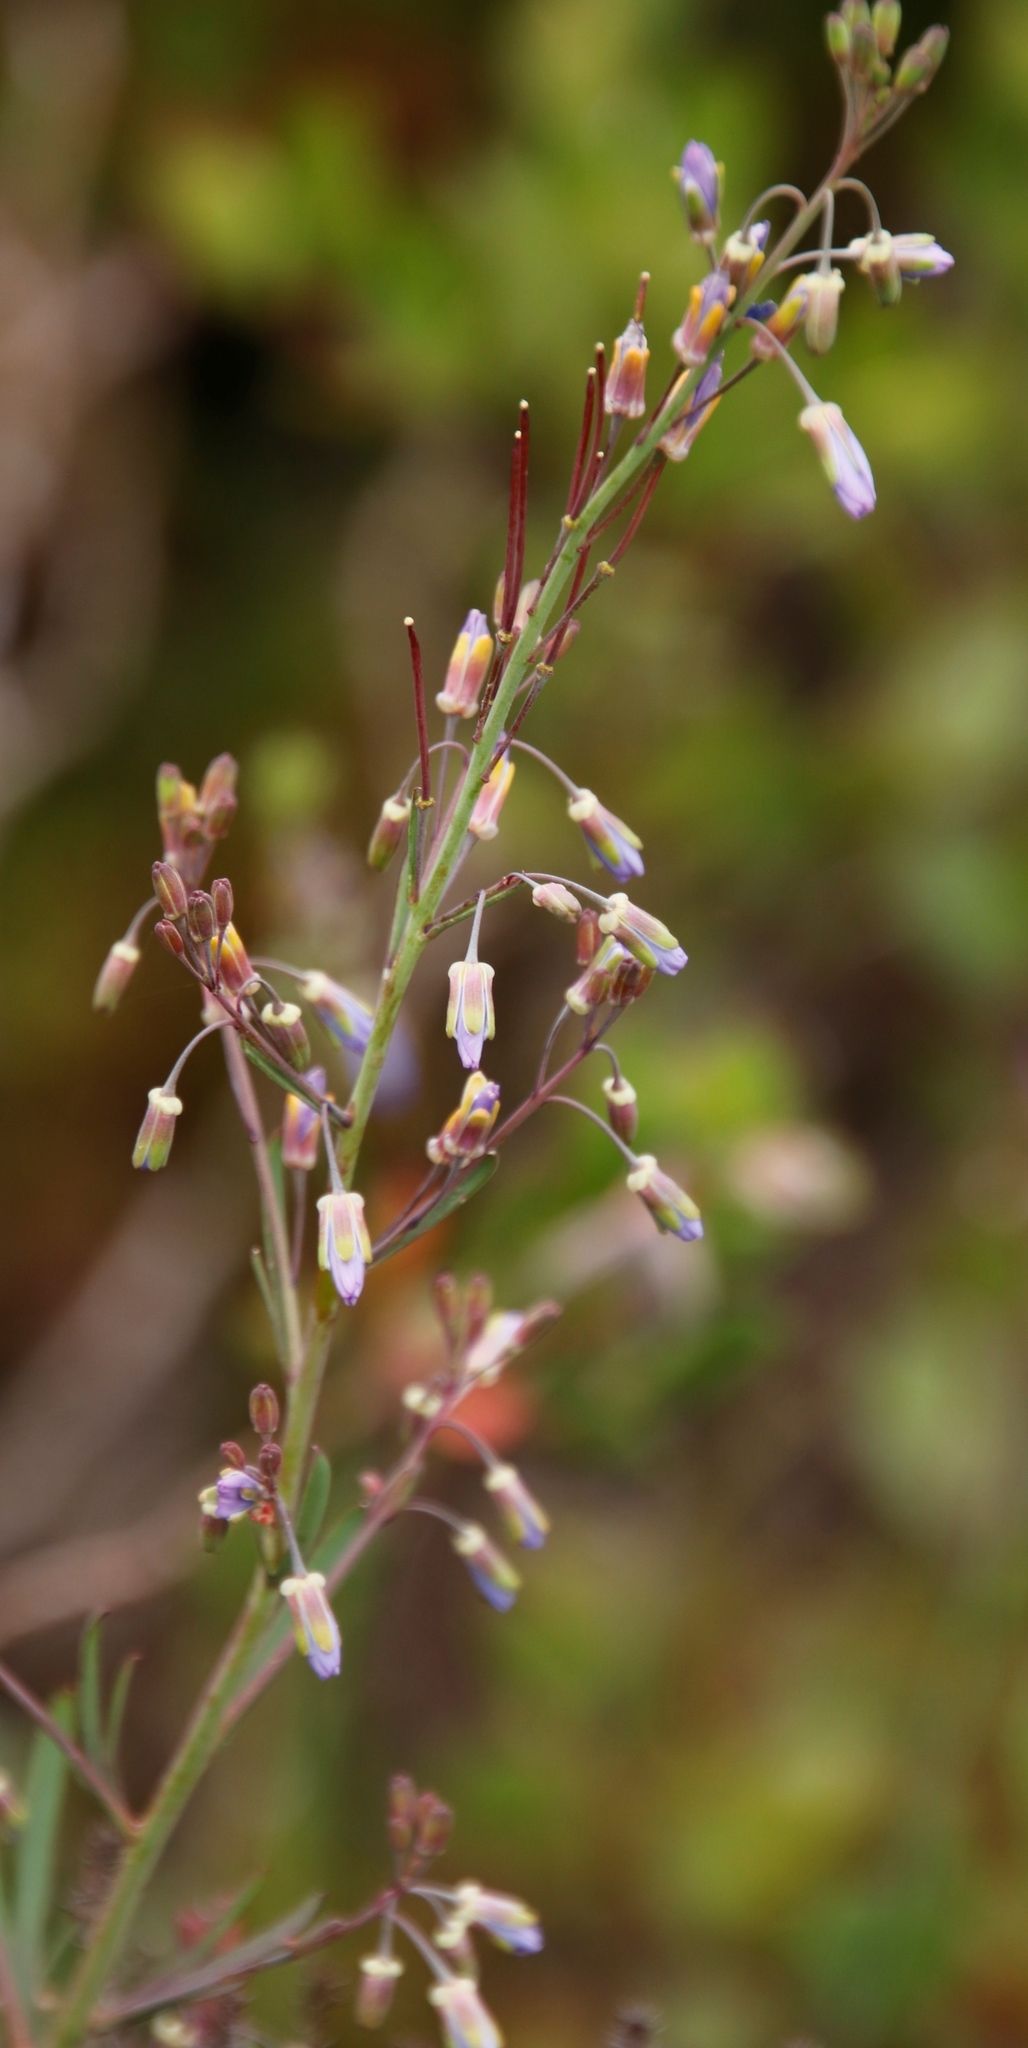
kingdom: Plantae
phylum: Tracheophyta
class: Magnoliopsida
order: Brassicales
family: Brassicaceae
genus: Heliophila
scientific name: Heliophila linearis
